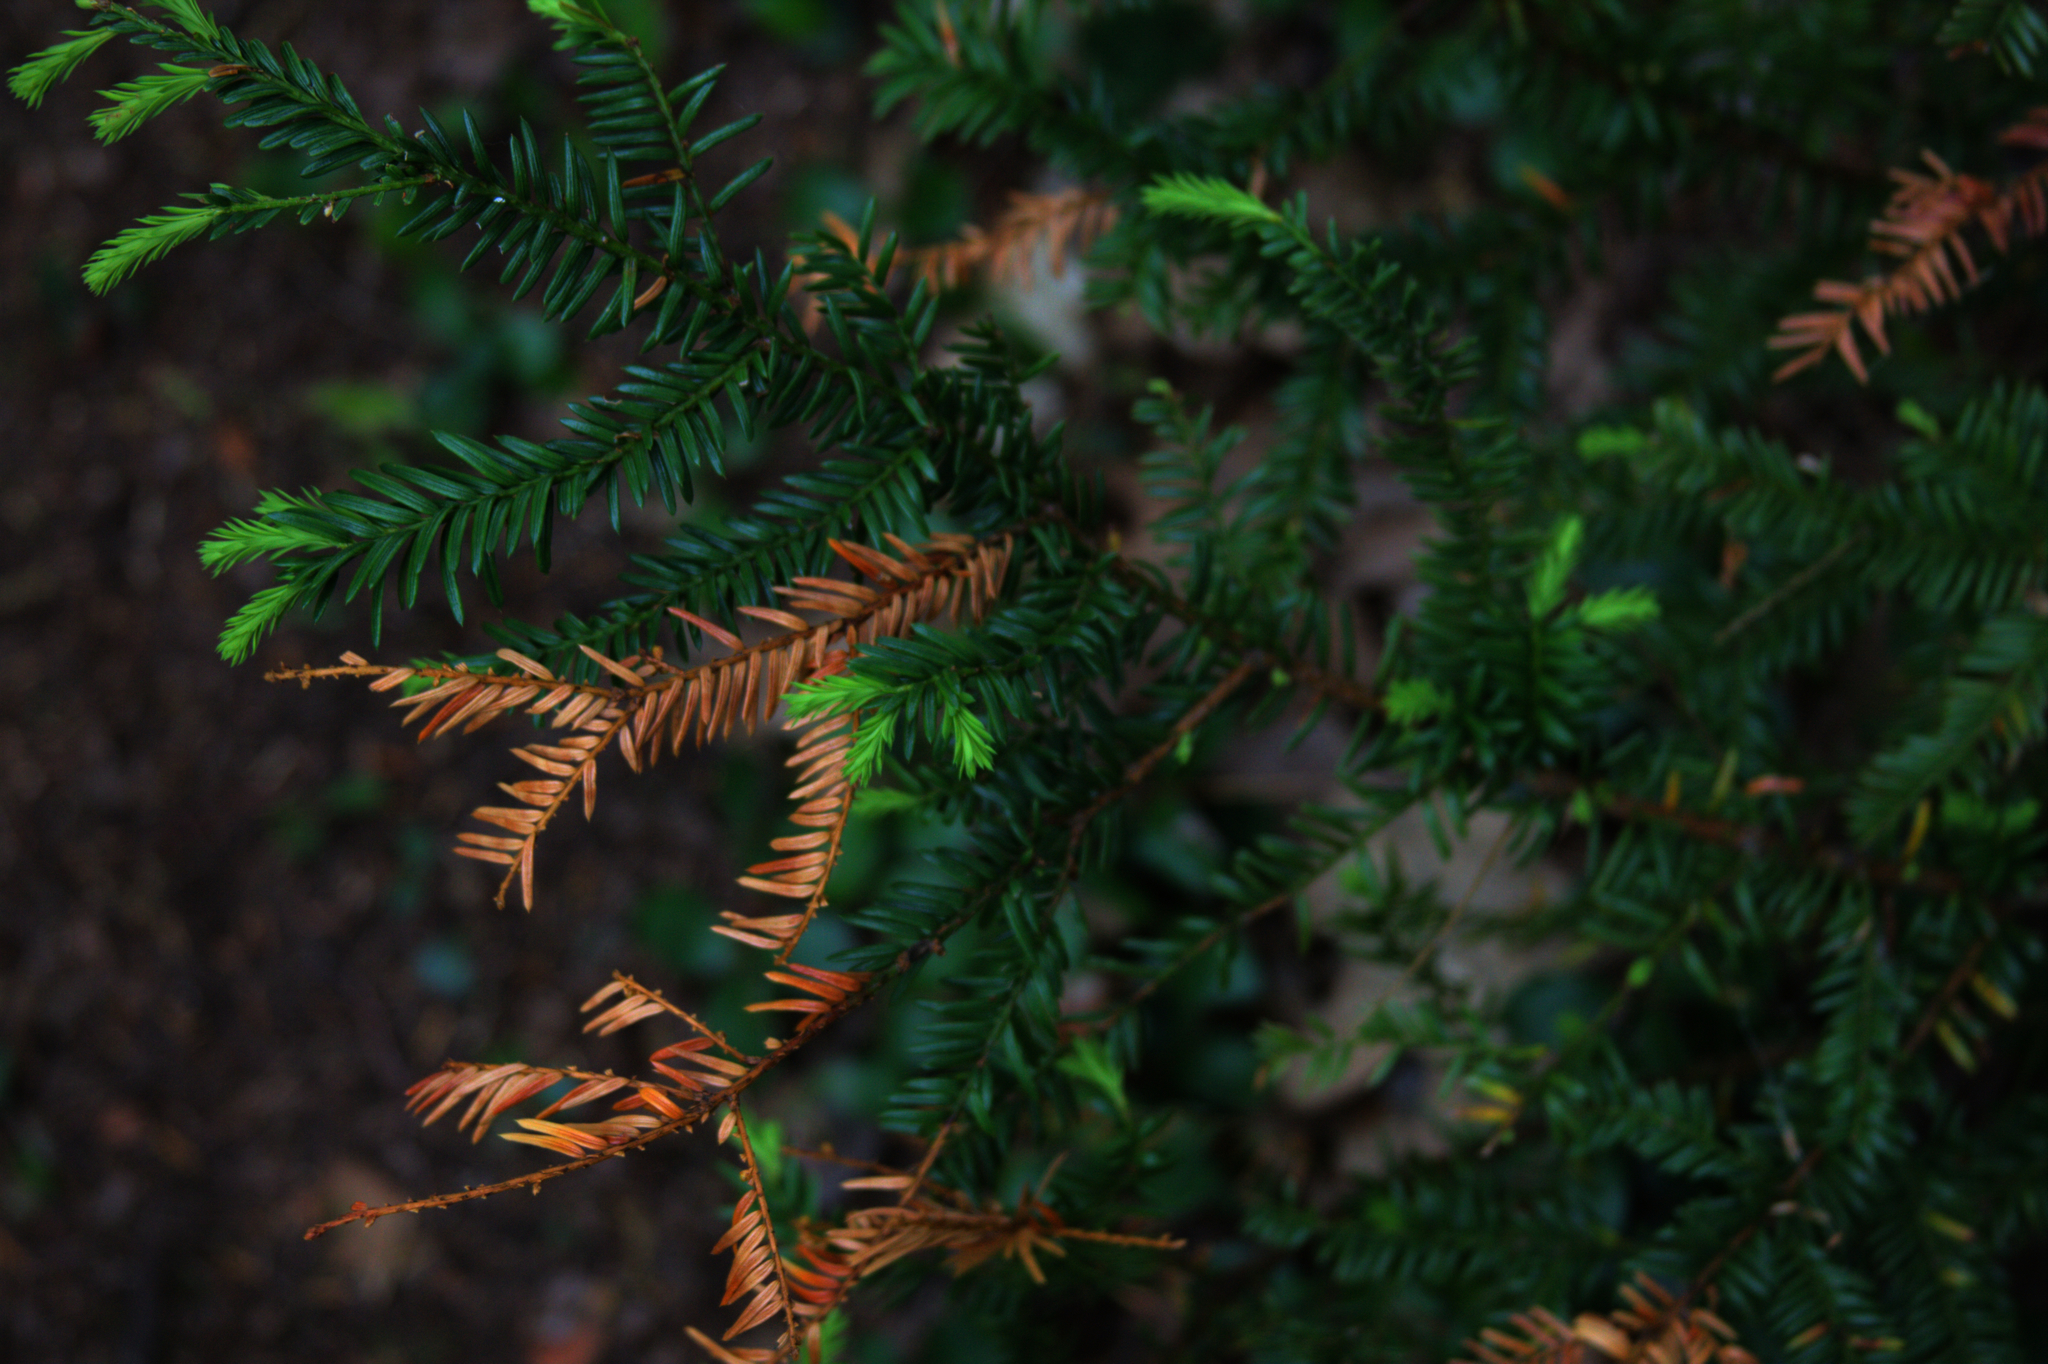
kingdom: Plantae
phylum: Tracheophyta
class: Pinopsida
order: Pinales
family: Taxaceae
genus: Taxus
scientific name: Taxus canadensis
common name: American yew
